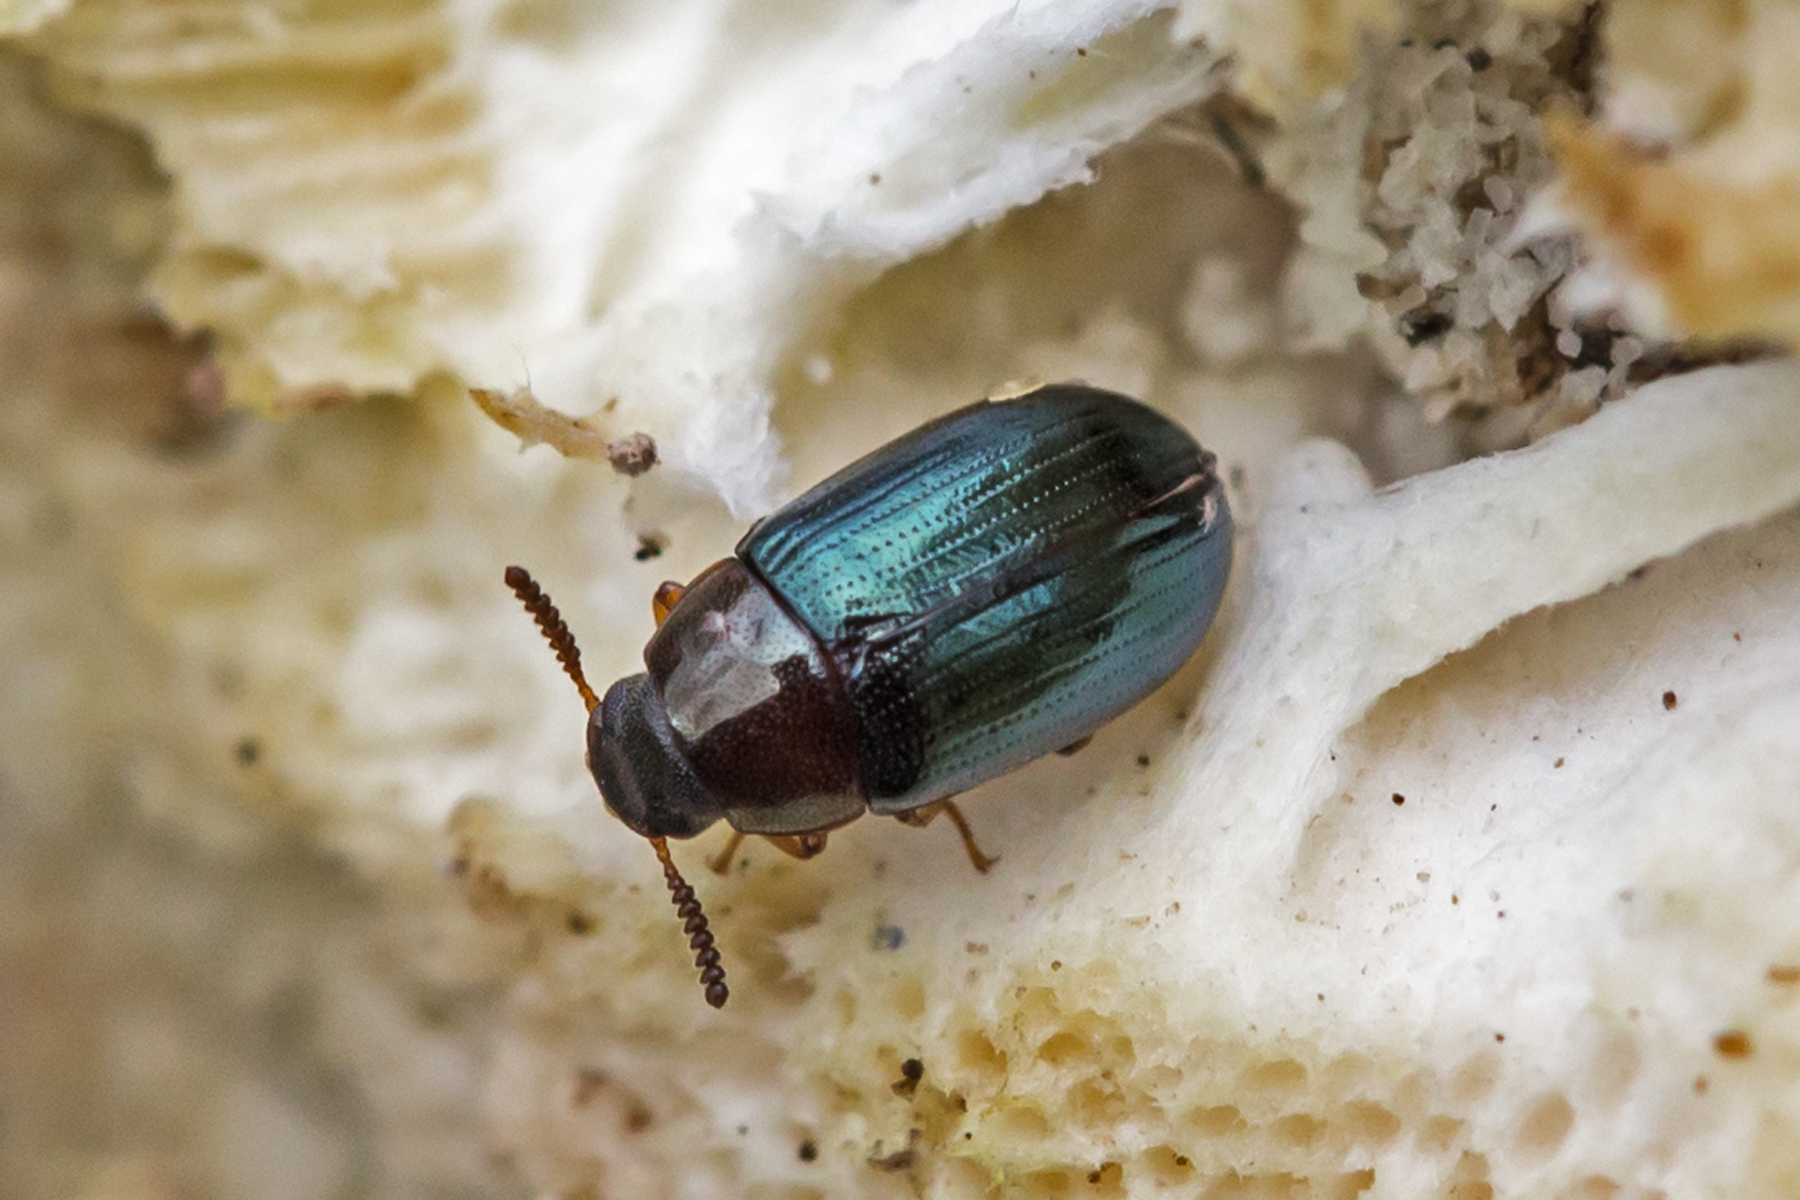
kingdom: Animalia
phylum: Arthropoda
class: Insecta
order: Coleoptera
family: Tenebrionidae
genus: Neomida
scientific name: Neomida bicornis
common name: Two-horned darkling beetle
